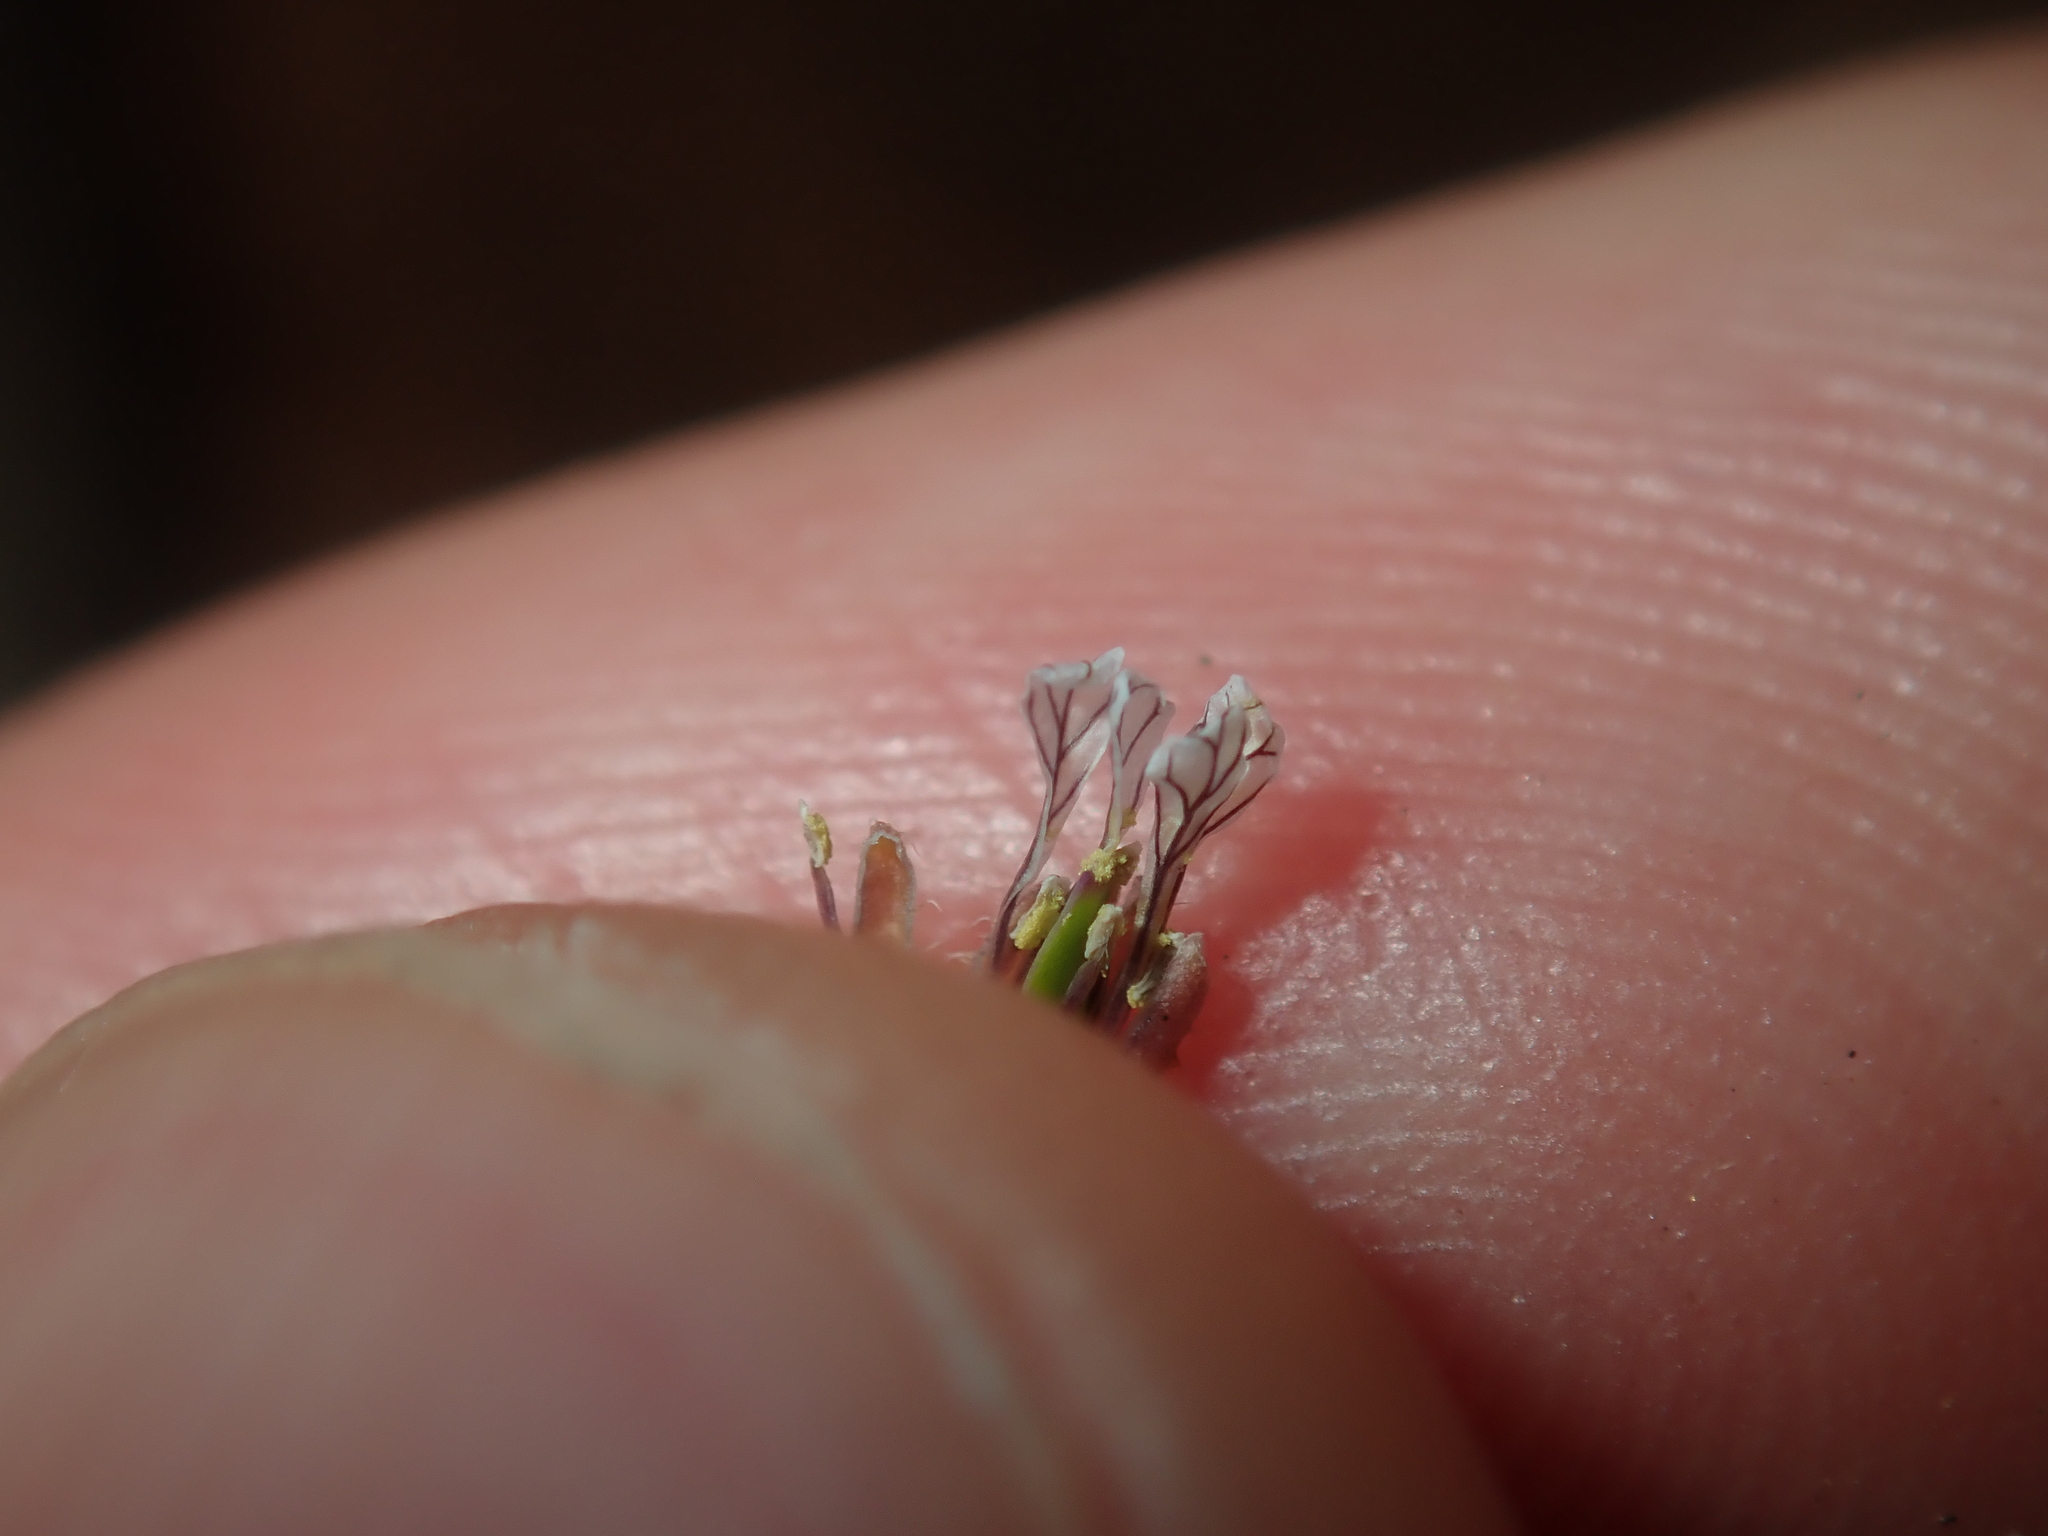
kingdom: Plantae
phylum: Tracheophyta
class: Magnoliopsida
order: Brassicales
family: Brassicaceae
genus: Carrichtera
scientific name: Carrichtera annua
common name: Cress rocket
